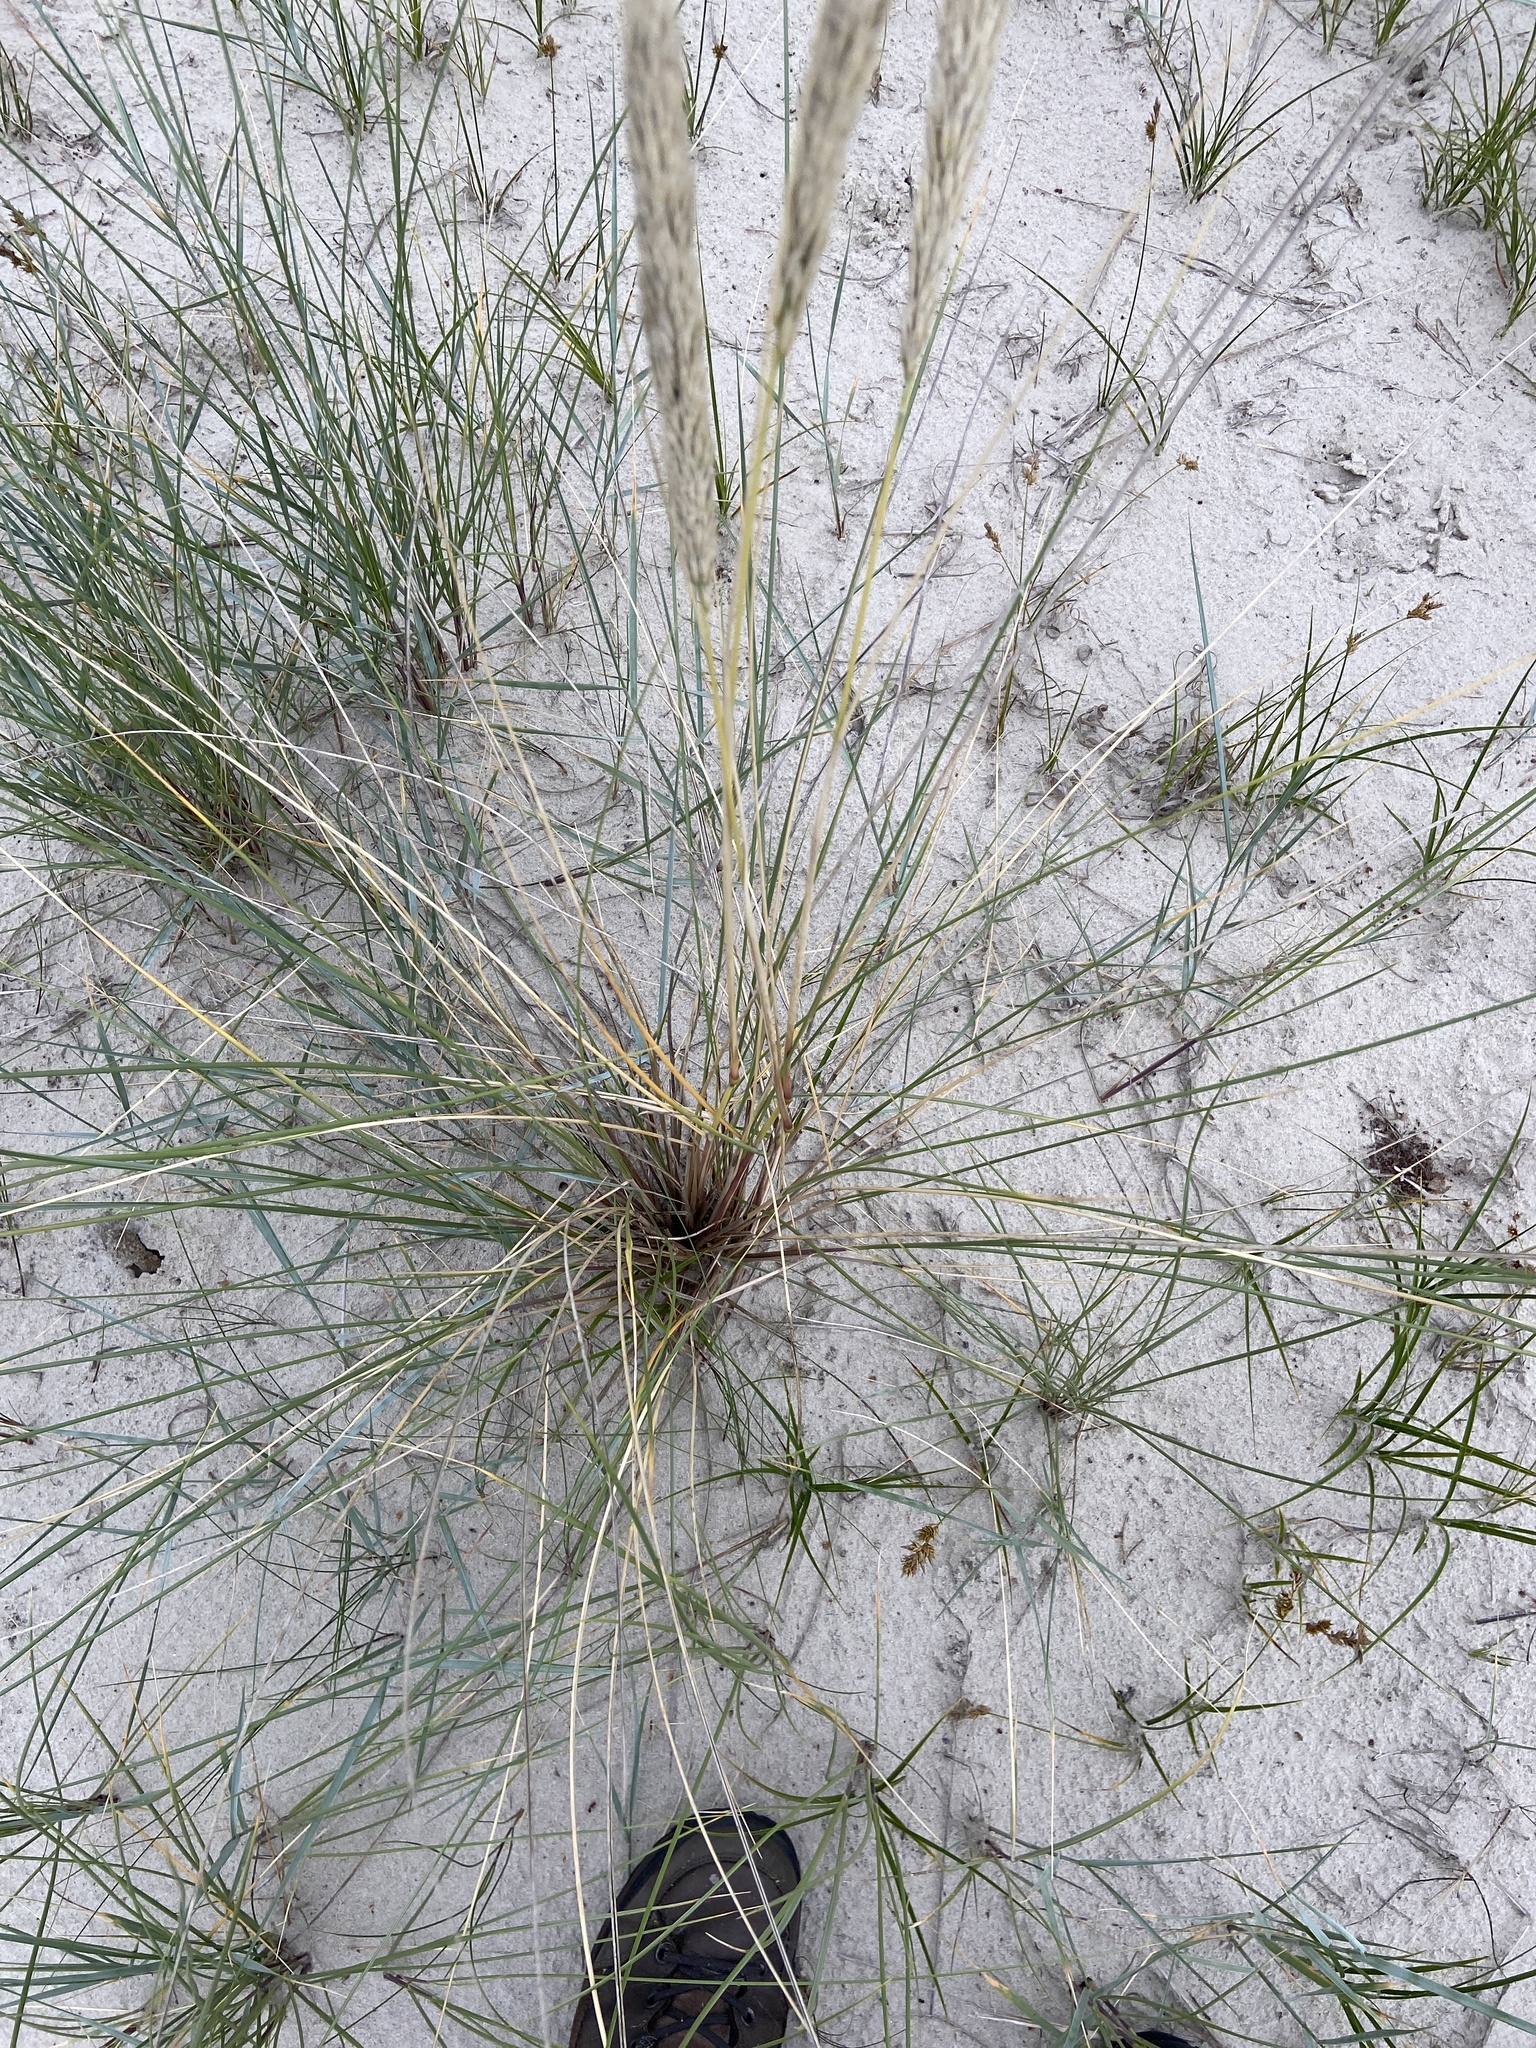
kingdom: Plantae
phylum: Tracheophyta
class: Liliopsida
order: Poales
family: Poaceae
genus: Calamagrostis
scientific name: Calamagrostis arenaria
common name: European beachgrass
